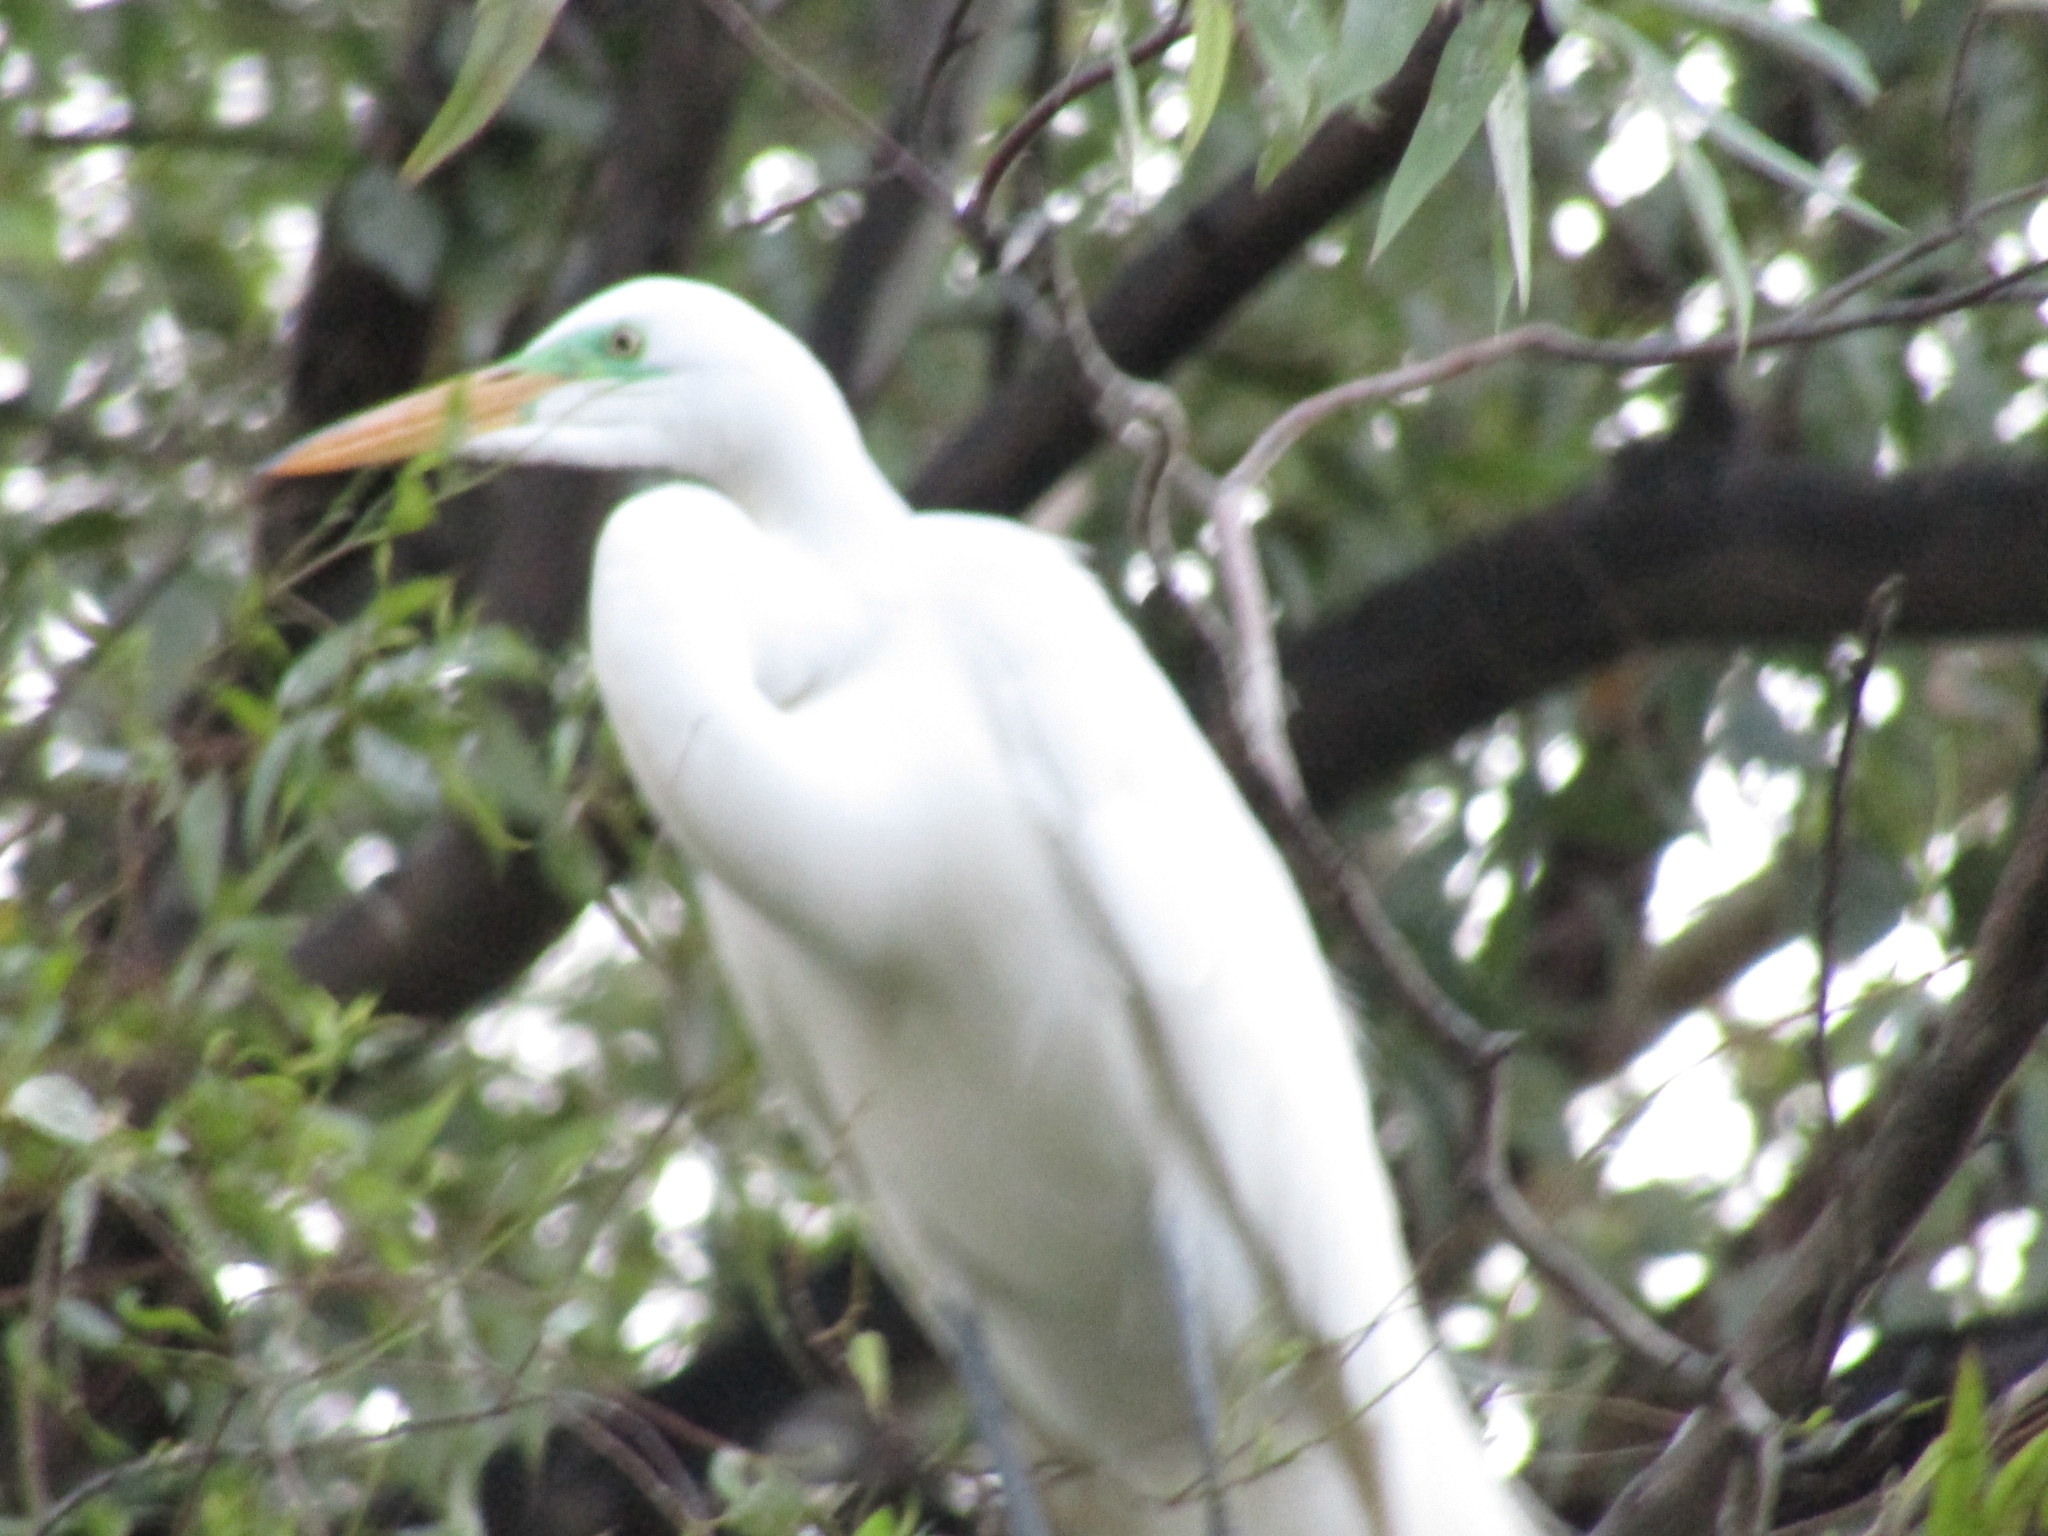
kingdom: Animalia
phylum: Chordata
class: Aves
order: Pelecaniformes
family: Ardeidae
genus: Ardea
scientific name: Ardea alba
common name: Great egret
